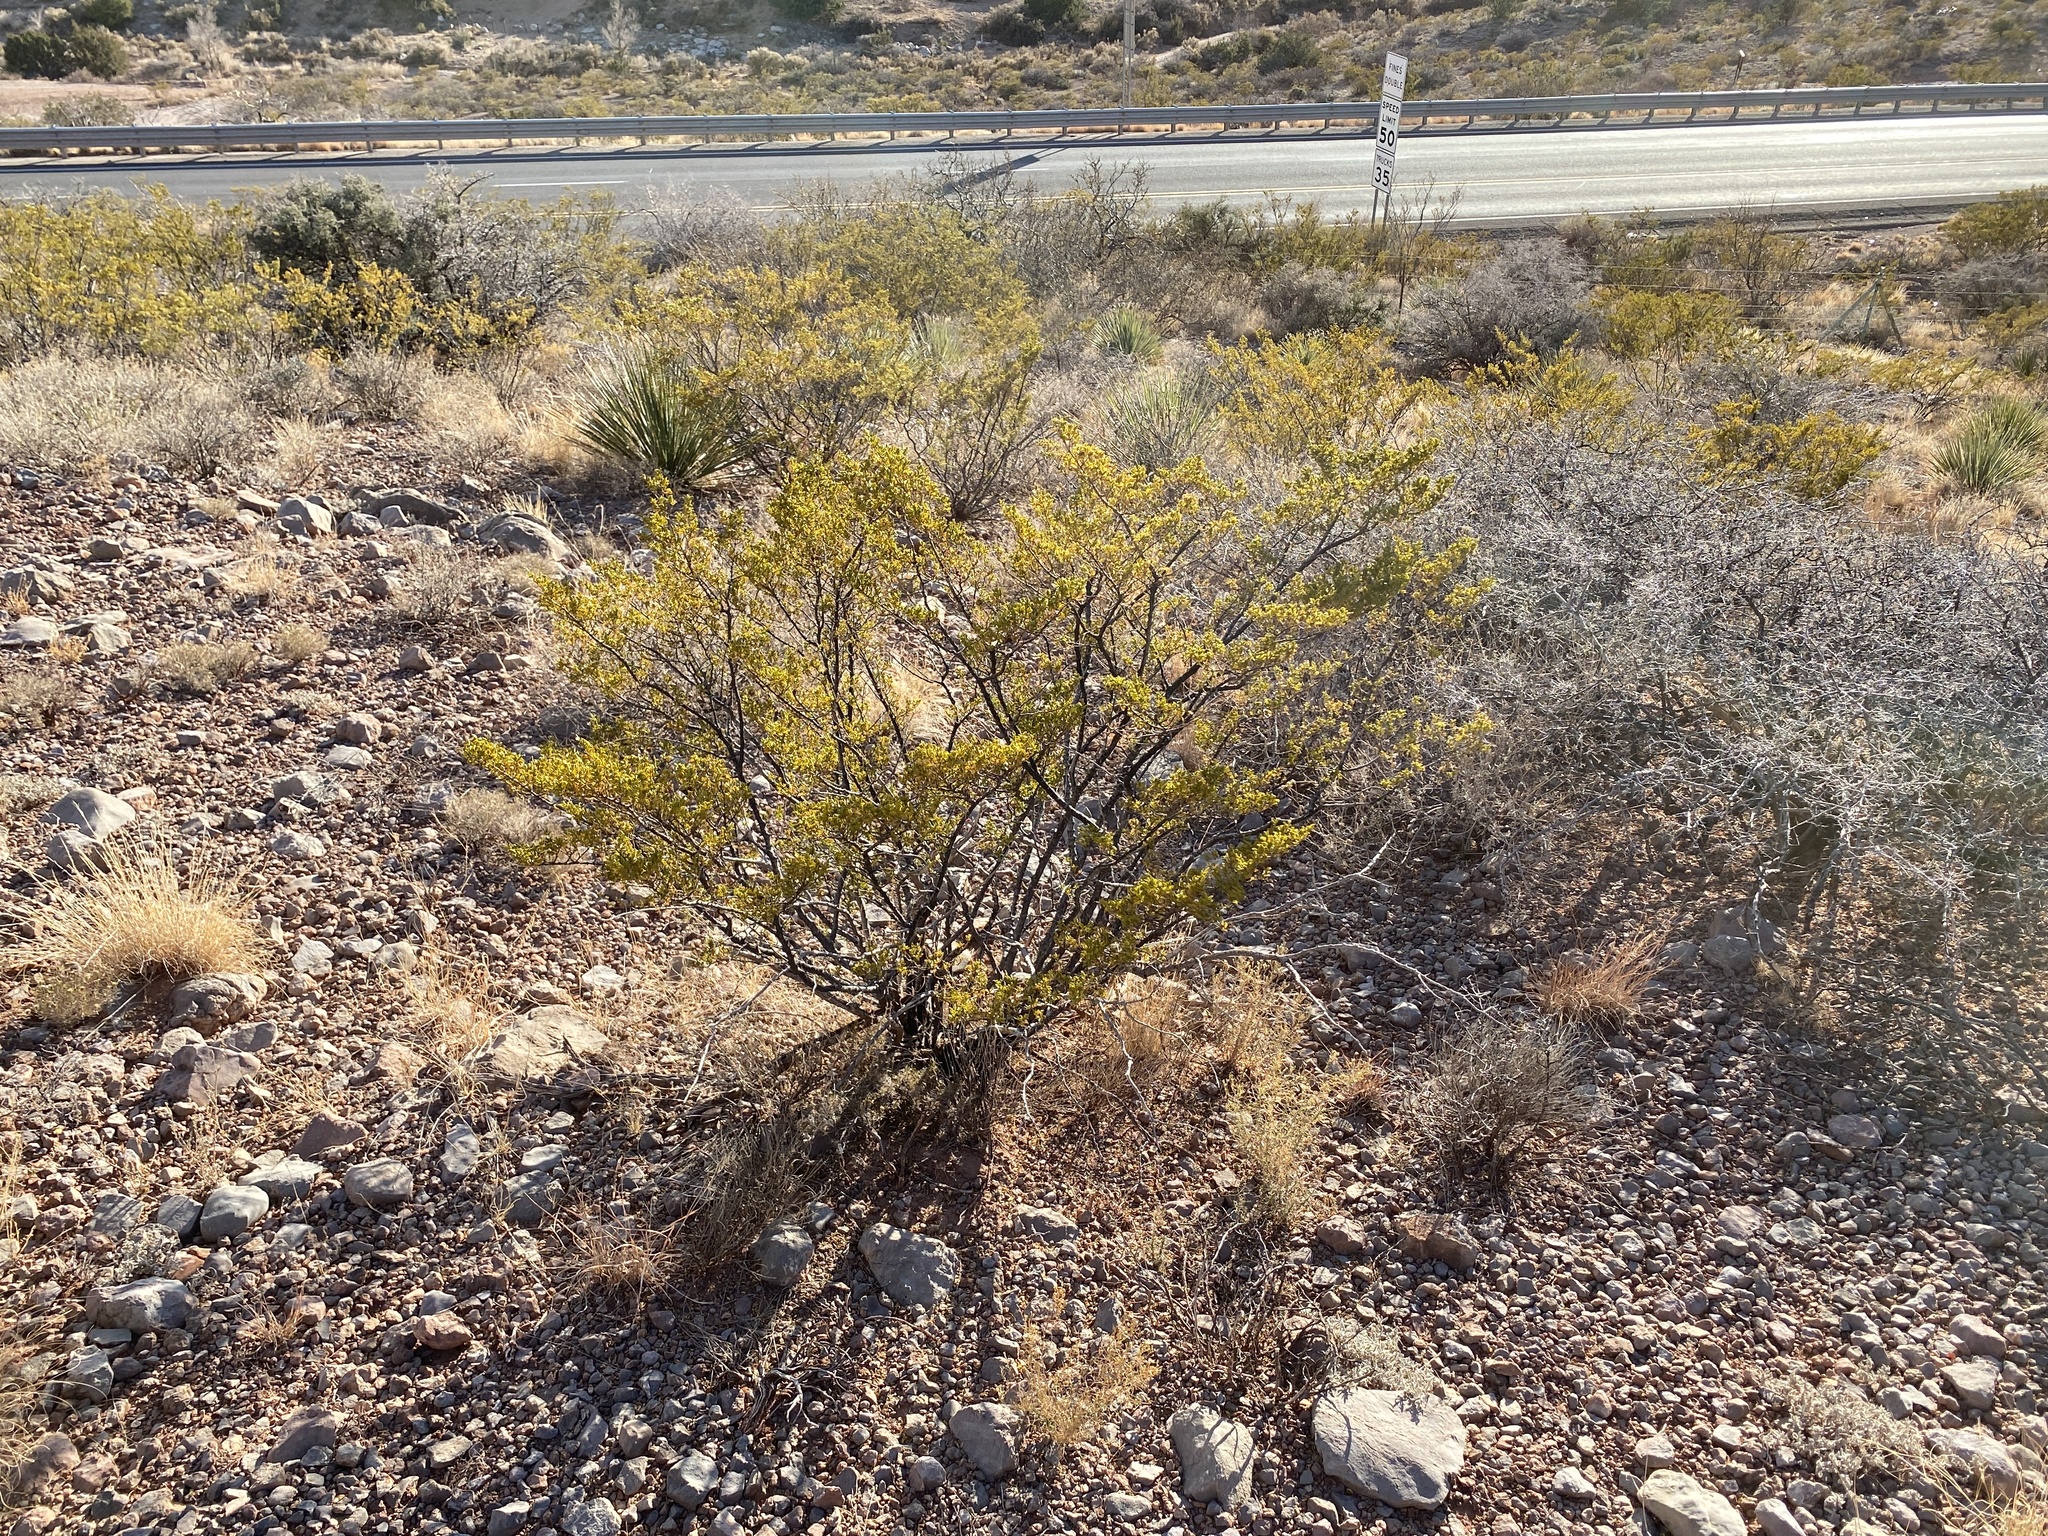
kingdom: Plantae
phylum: Tracheophyta
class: Magnoliopsida
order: Zygophyllales
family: Zygophyllaceae
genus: Larrea
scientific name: Larrea tridentata
